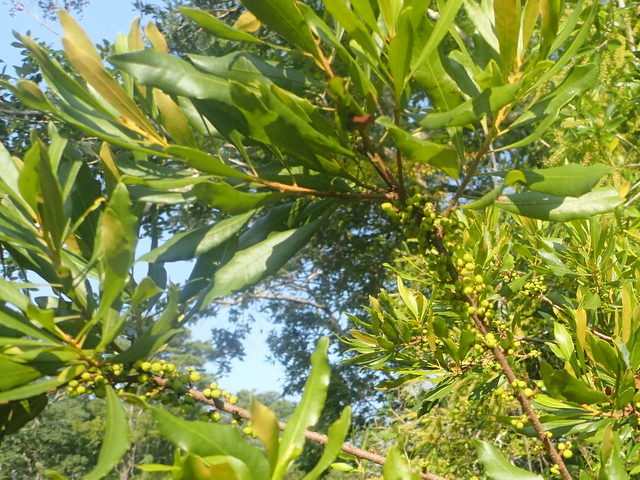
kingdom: Plantae
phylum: Tracheophyta
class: Magnoliopsida
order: Fagales
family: Myricaceae
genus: Morella
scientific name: Morella cerifera
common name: Wax myrtle
